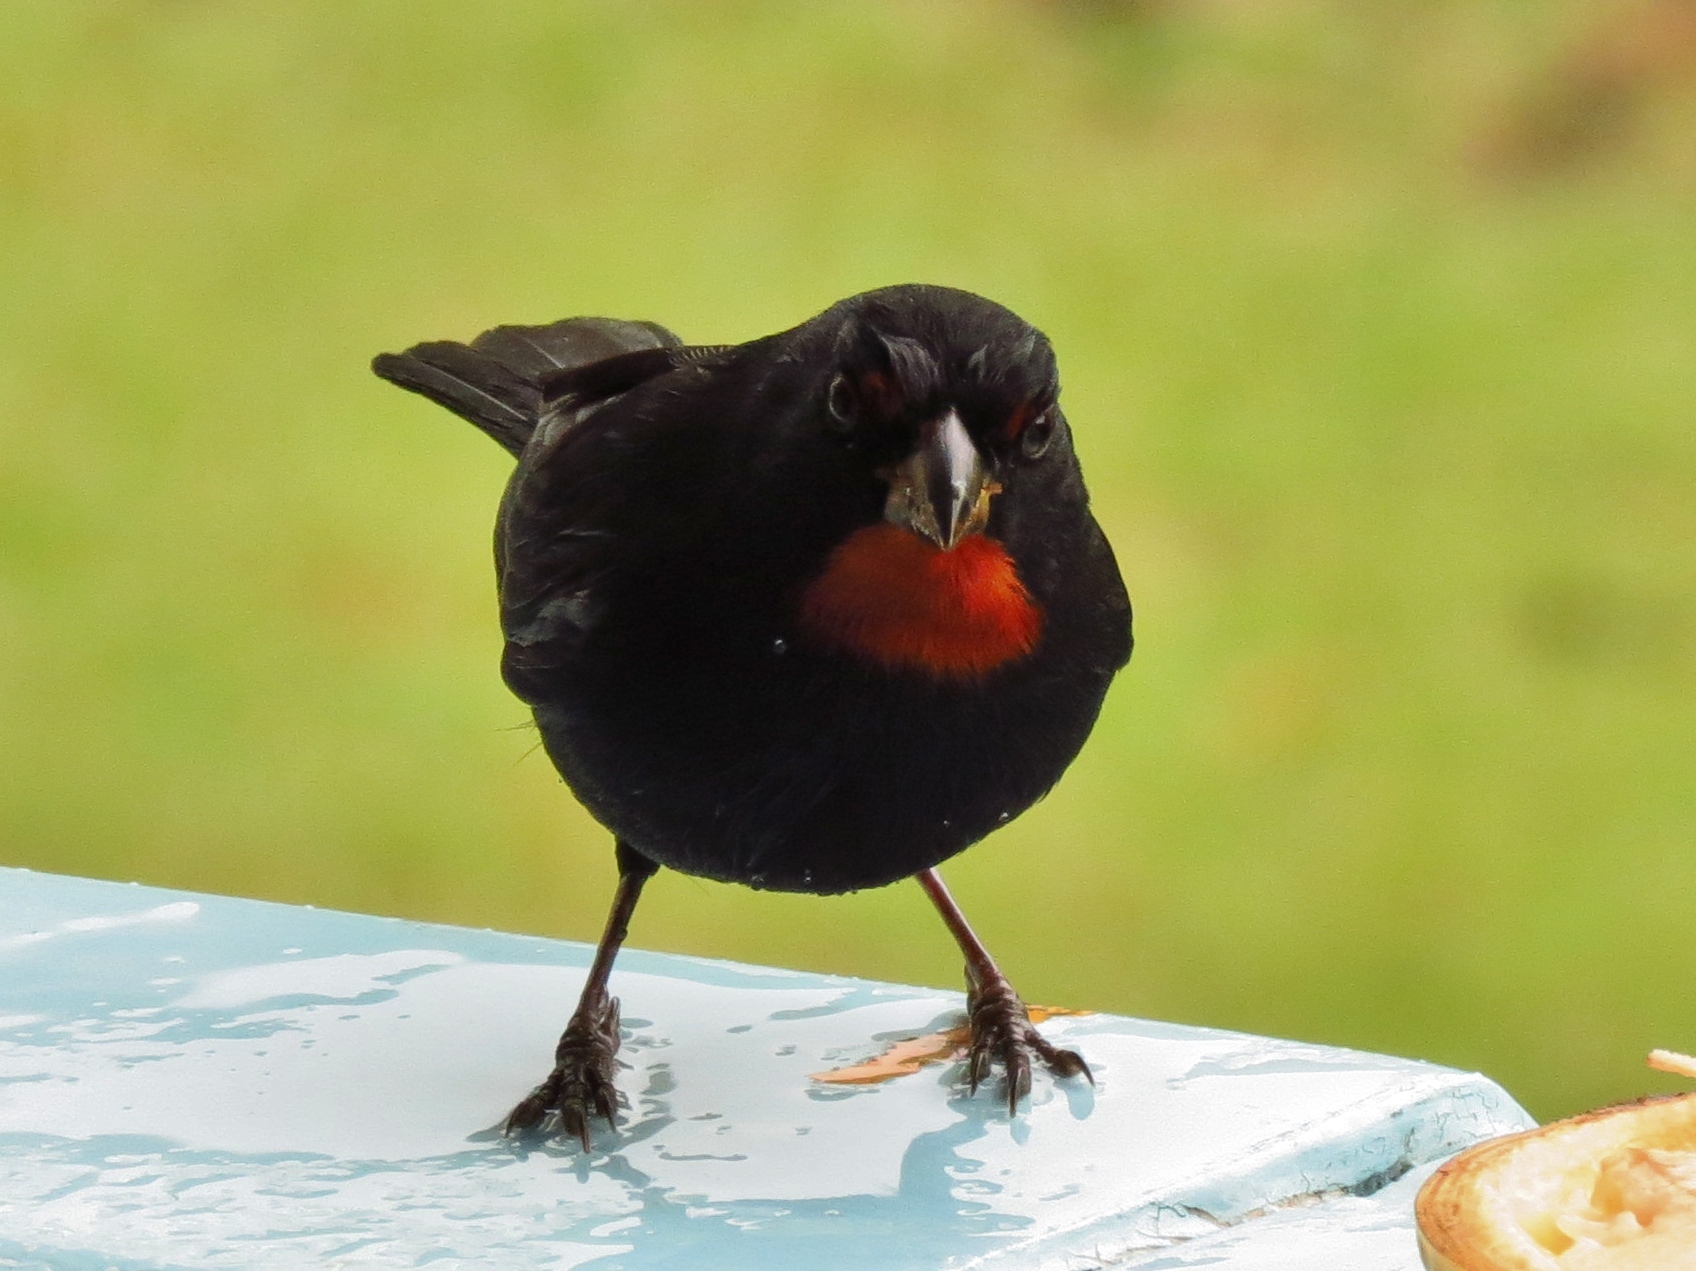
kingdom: Animalia
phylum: Chordata
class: Aves
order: Passeriformes
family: Thraupidae
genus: Loxigilla
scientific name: Loxigilla noctis
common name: Lesser antillean bullfinch
